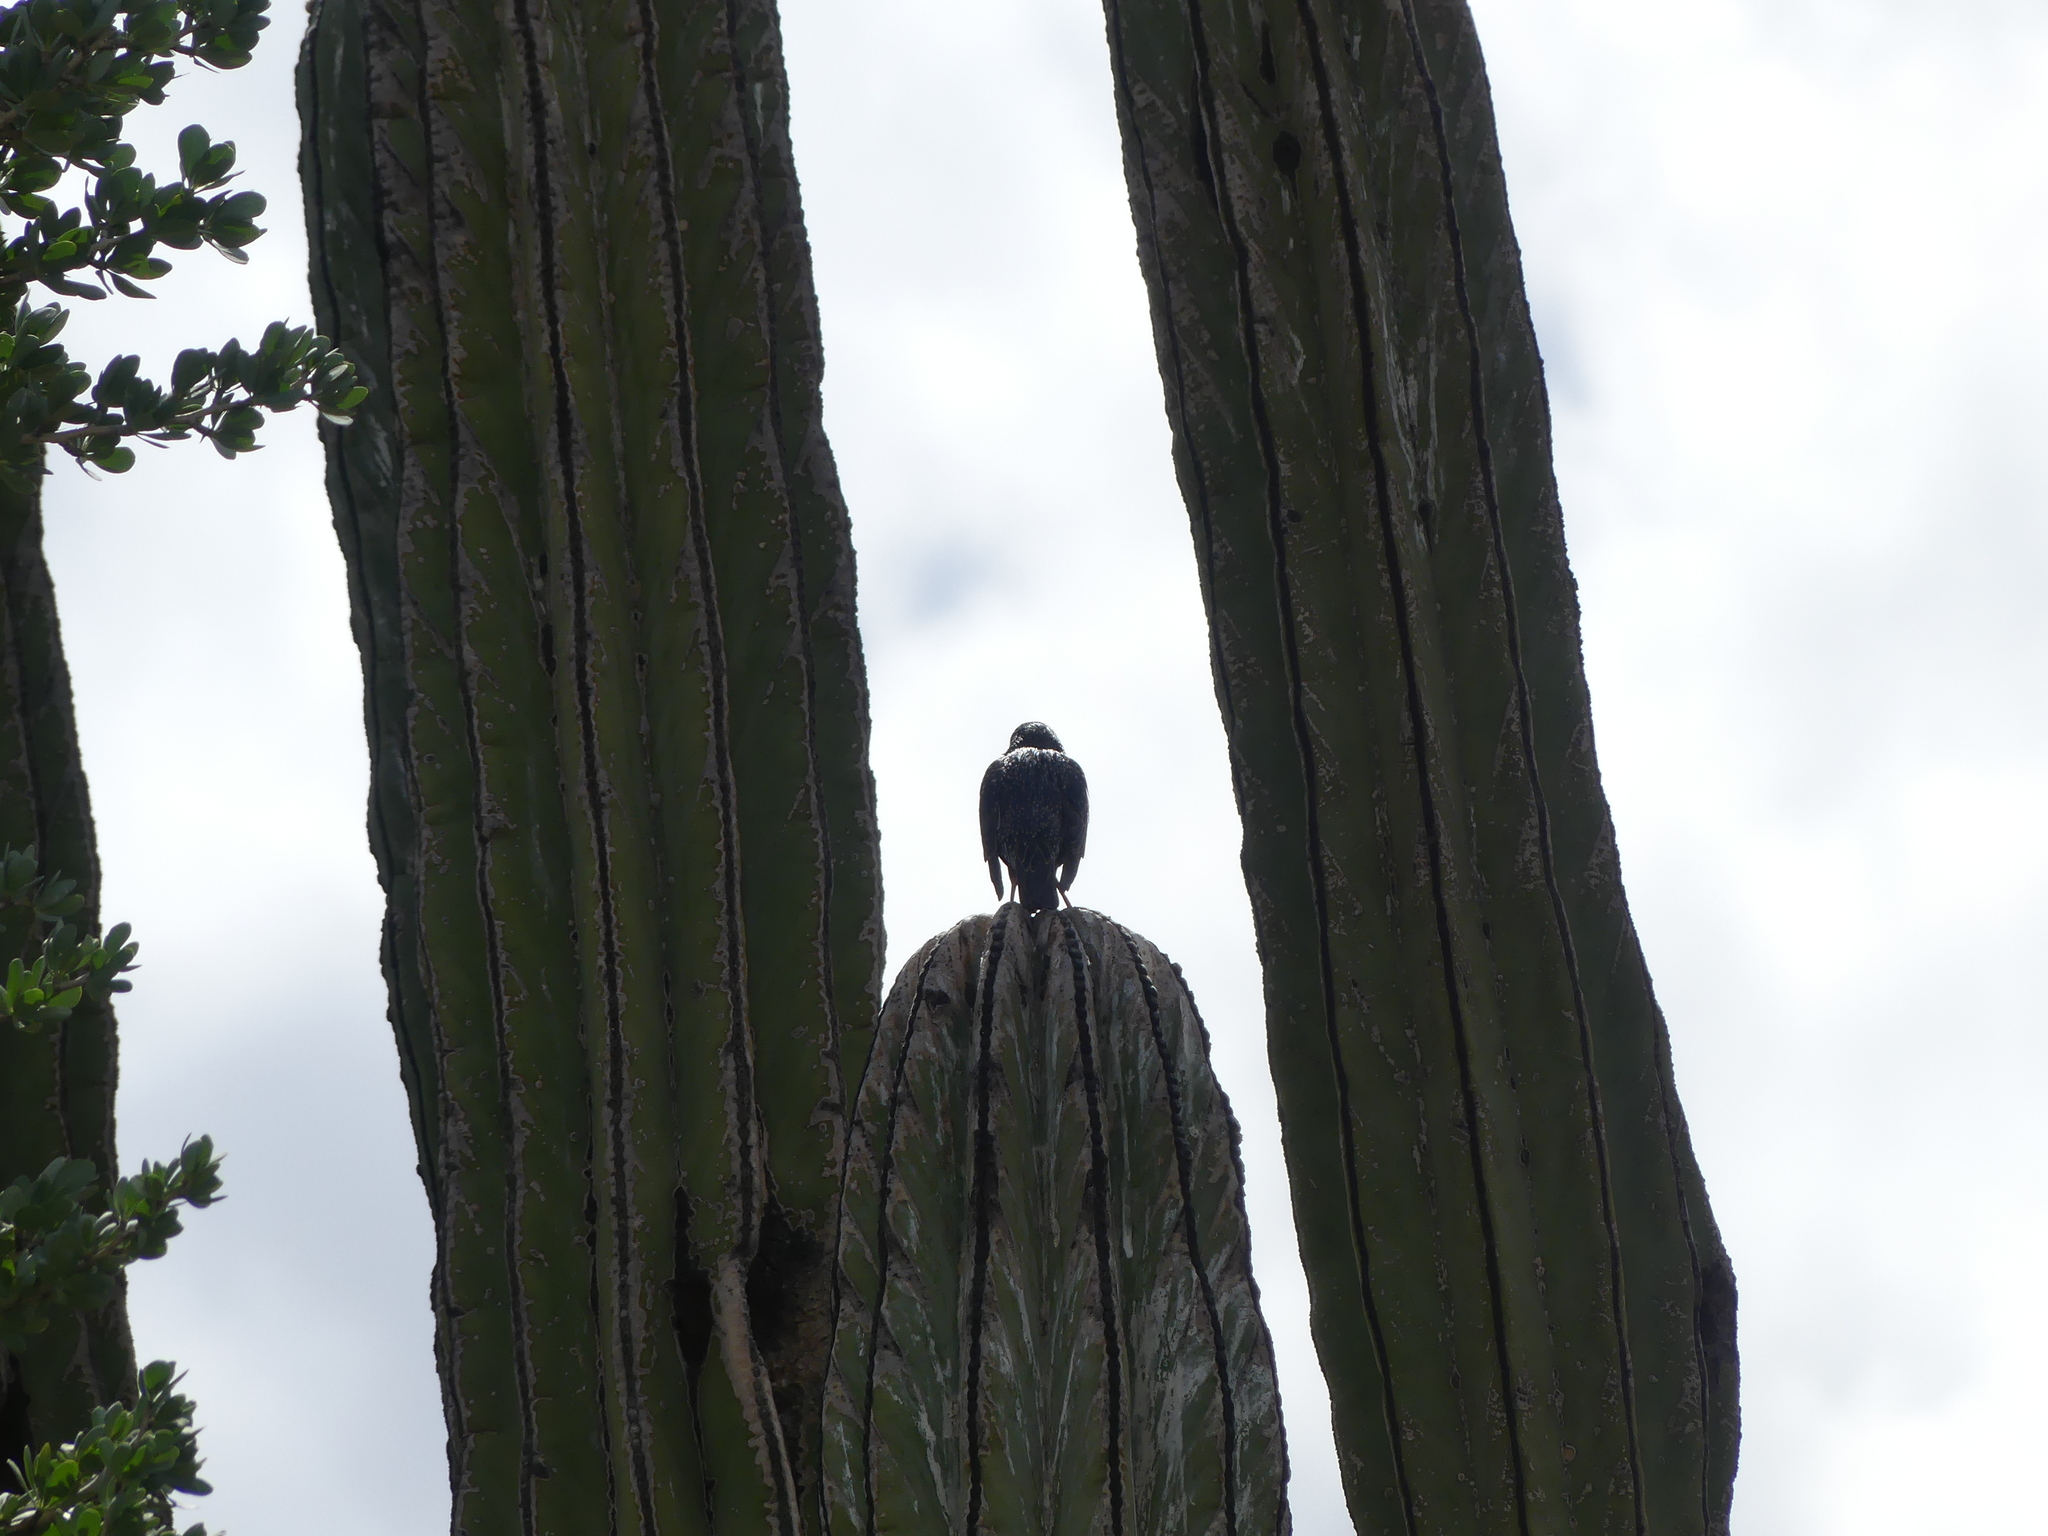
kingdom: Animalia
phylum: Chordata
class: Aves
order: Passeriformes
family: Sturnidae
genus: Sturnus
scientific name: Sturnus vulgaris
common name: Common starling
